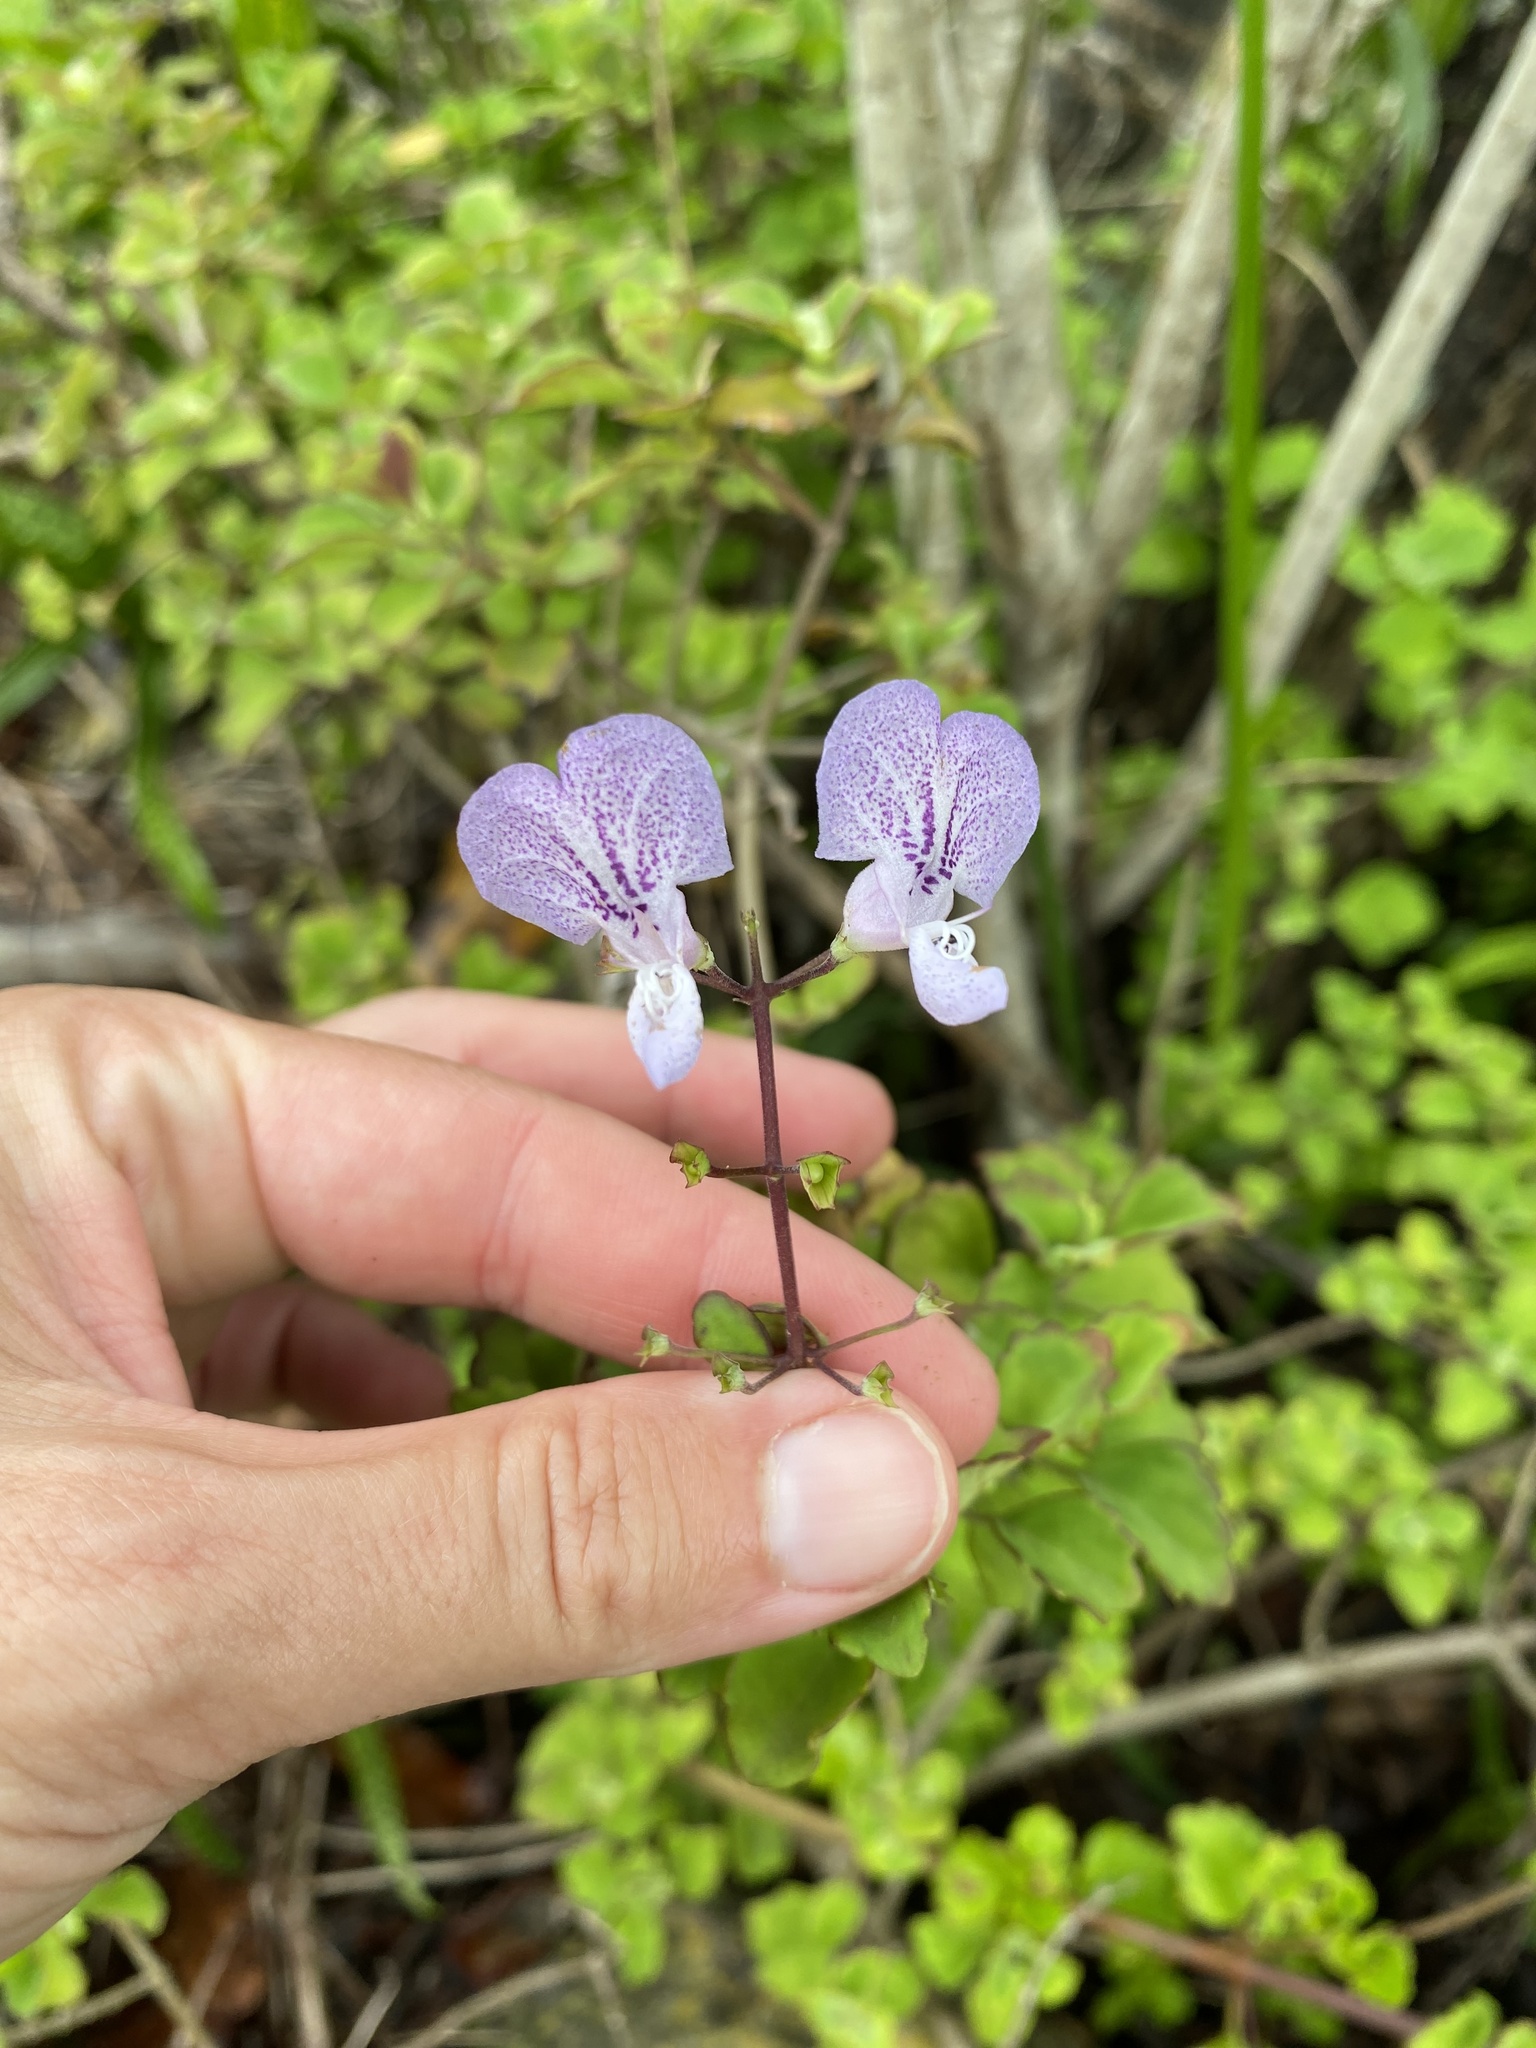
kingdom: Plantae
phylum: Tracheophyta
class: Magnoliopsida
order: Lamiales
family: Lamiaceae
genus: Plectranthus
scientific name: Plectranthus saccatus
